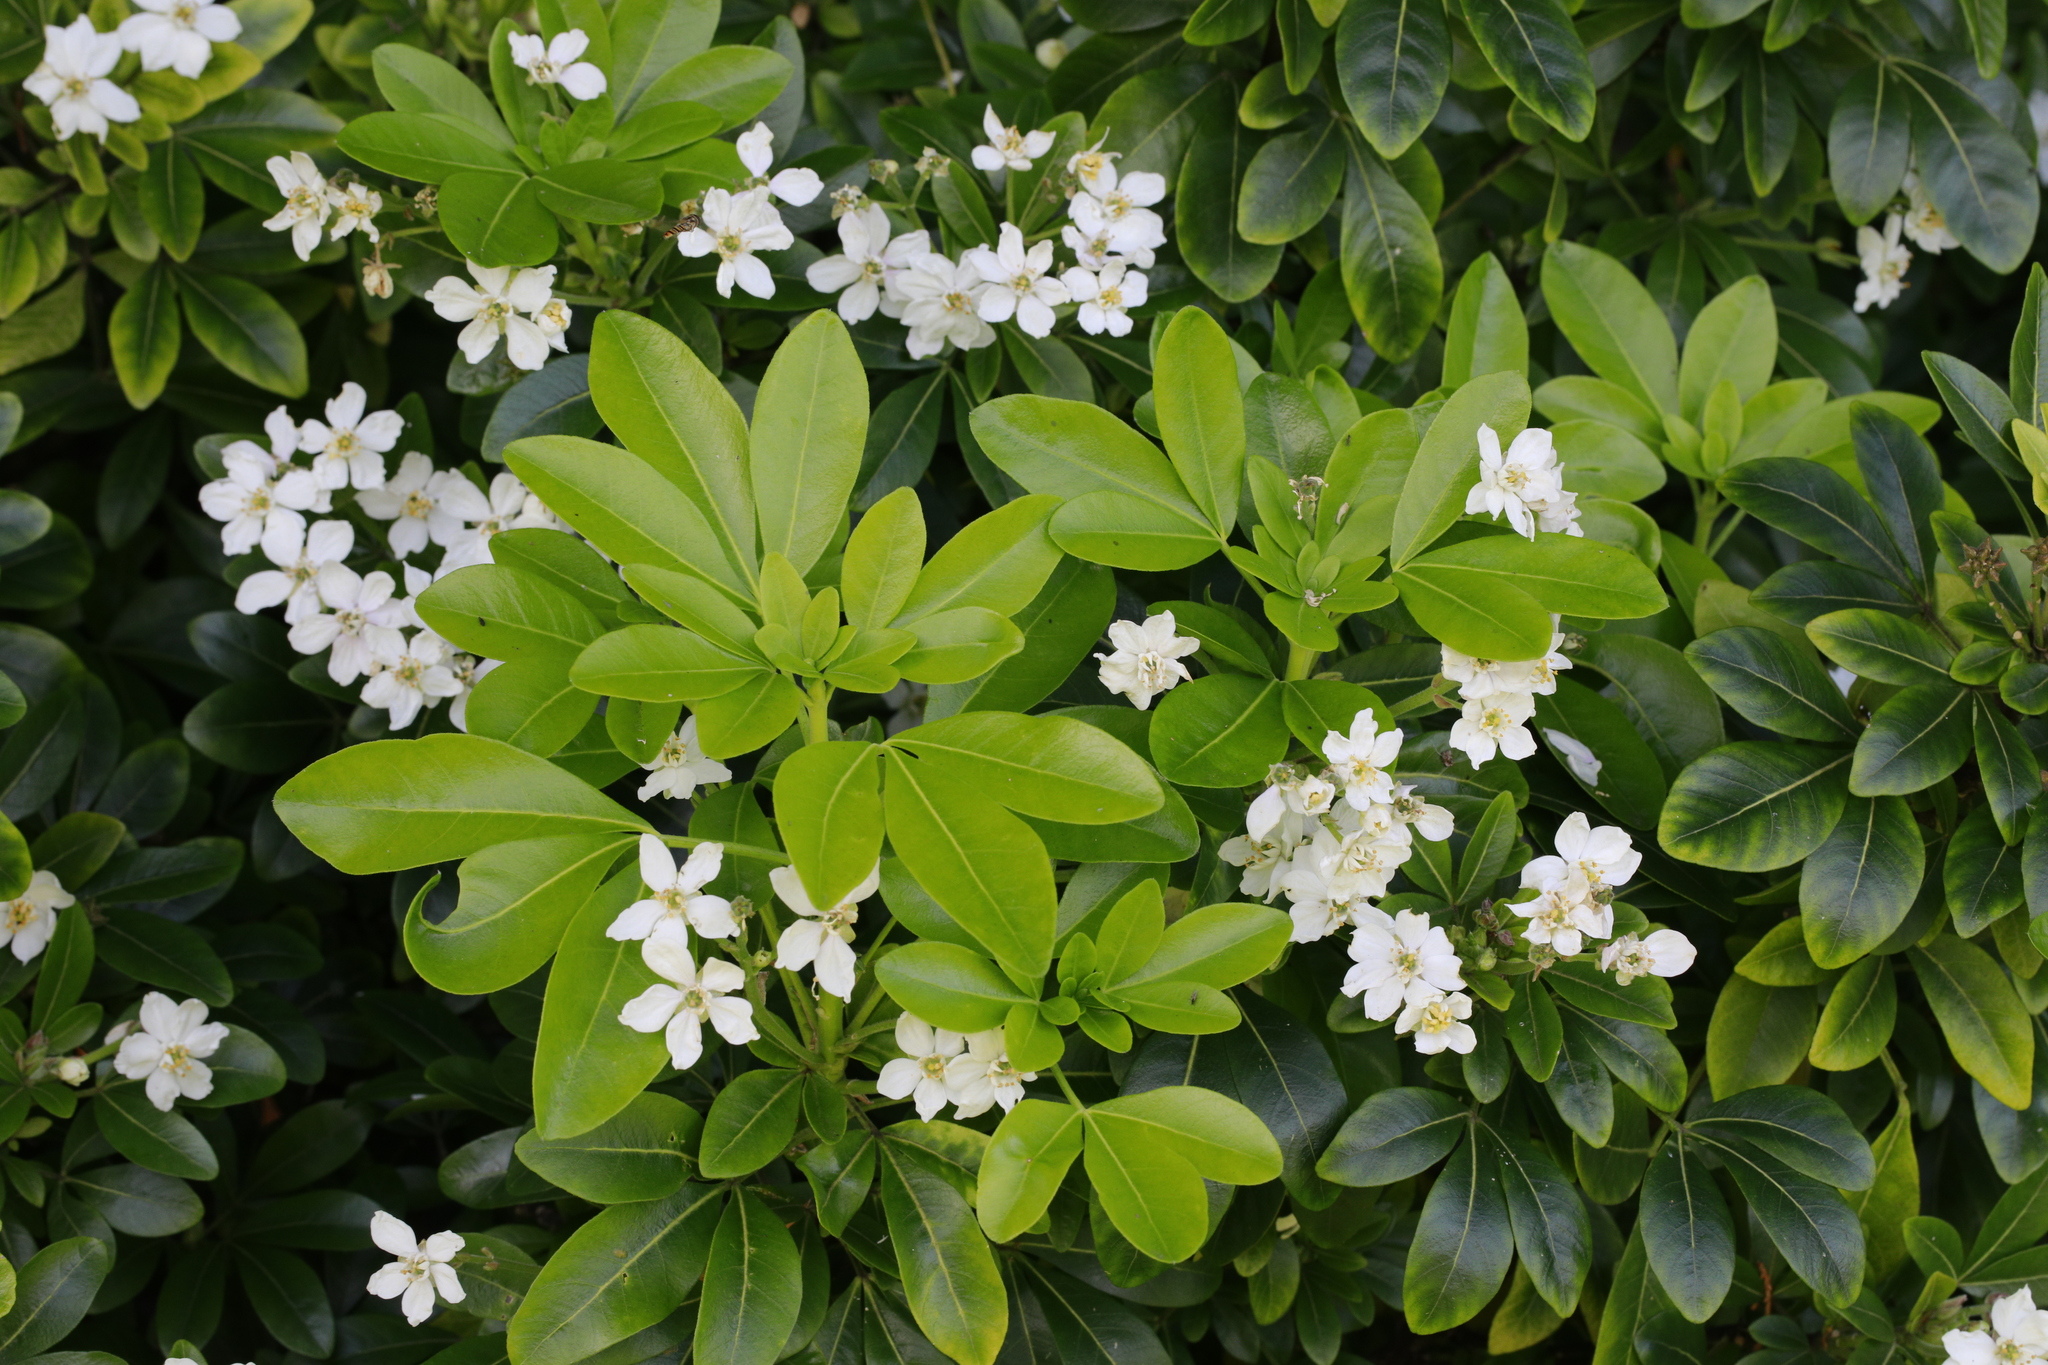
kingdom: Plantae
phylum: Tracheophyta
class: Magnoliopsida
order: Sapindales
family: Rutaceae
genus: Choisya
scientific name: Choisya ternata
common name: Mexican orange
